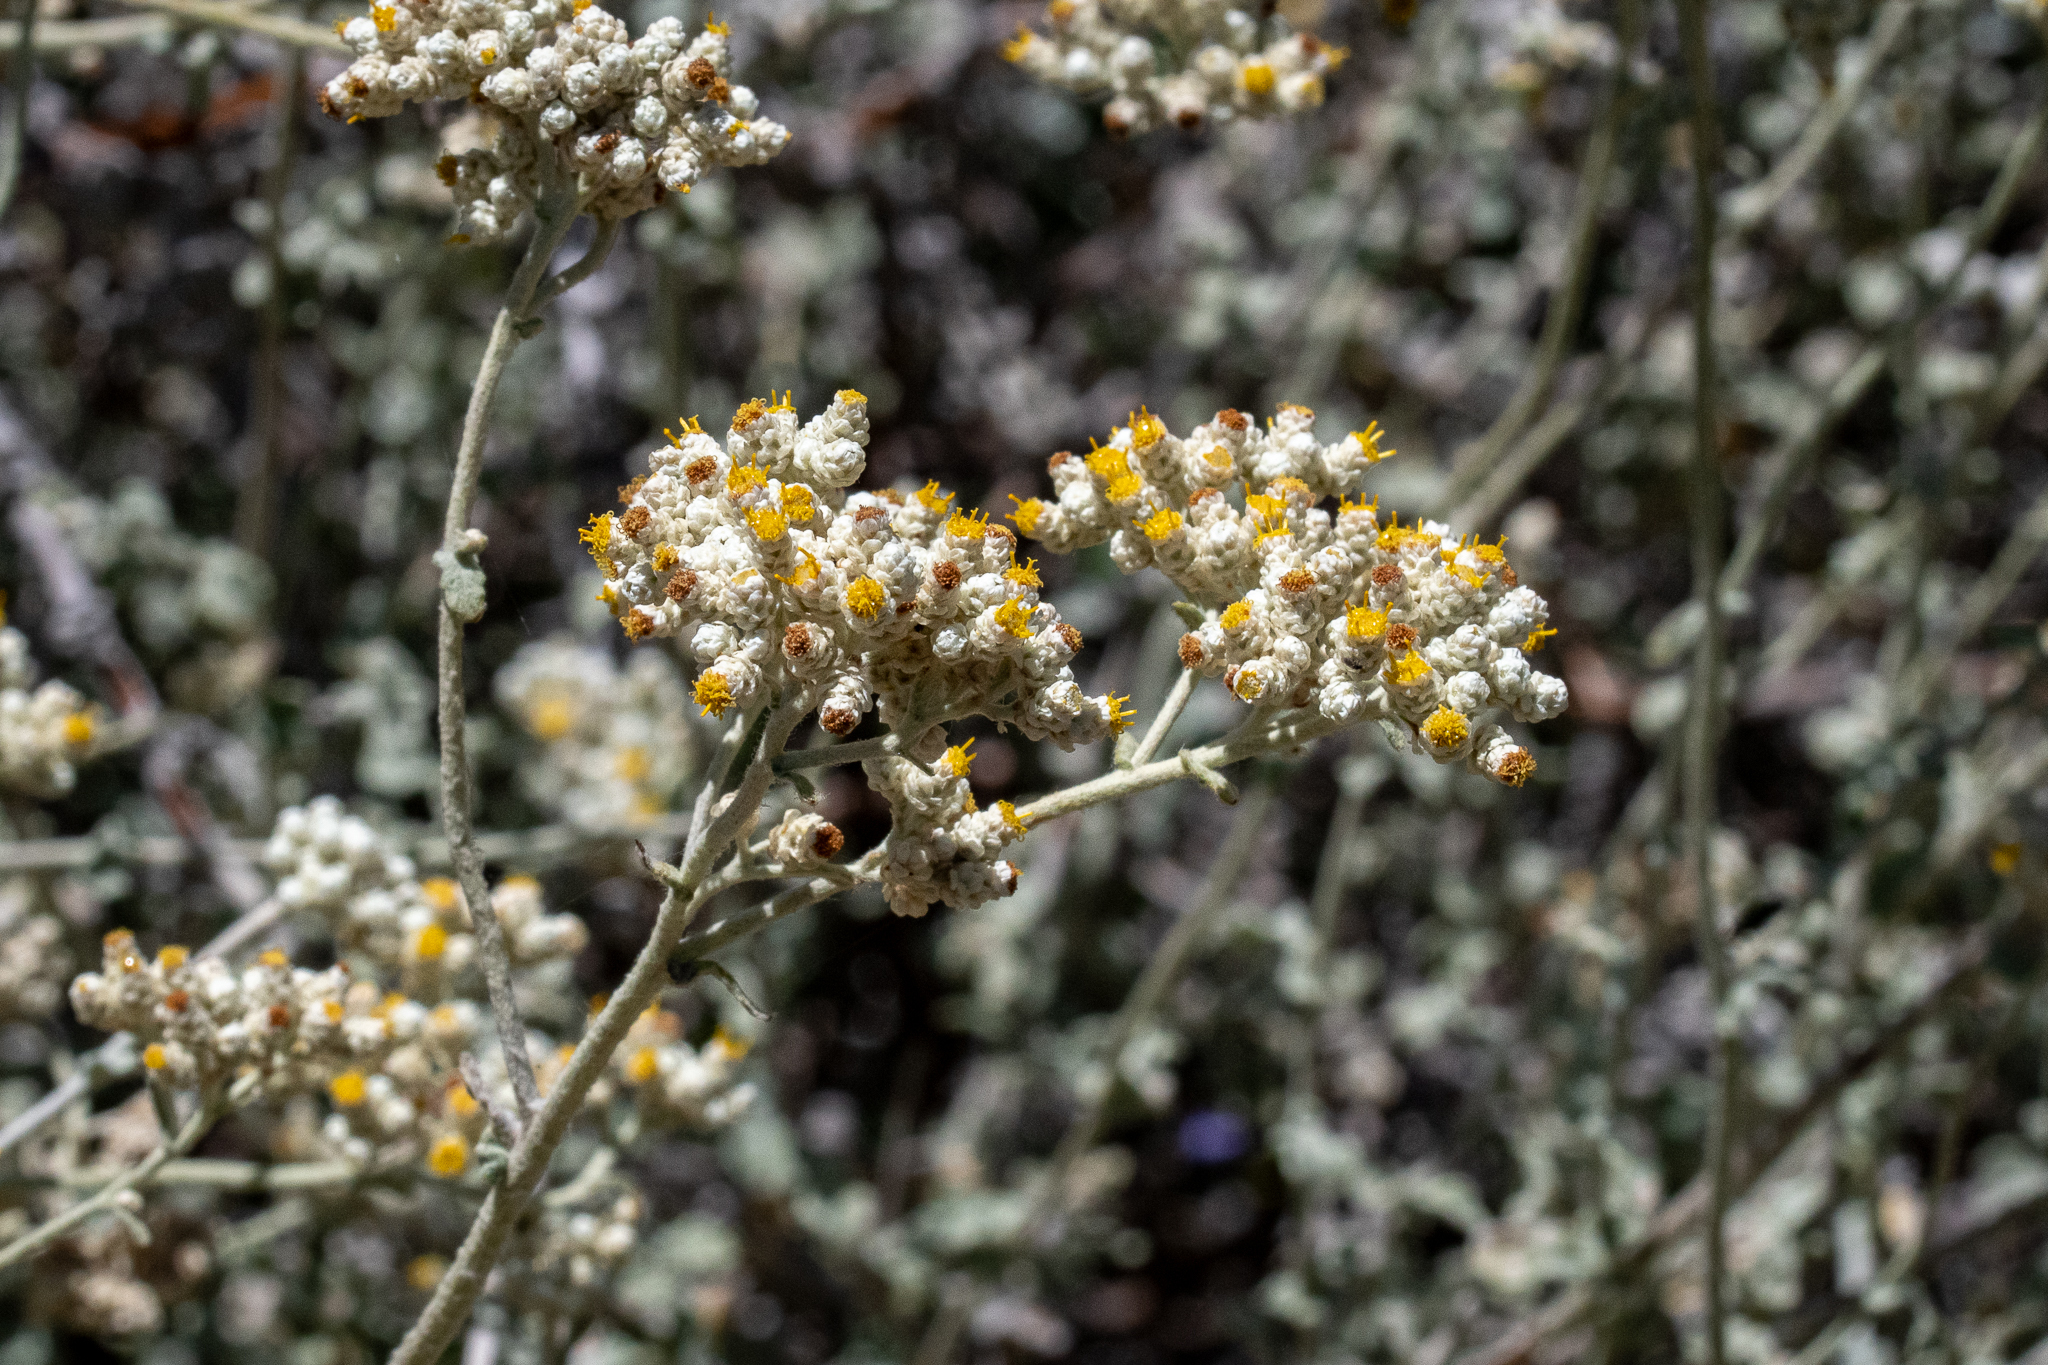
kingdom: Plantae
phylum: Tracheophyta
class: Magnoliopsida
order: Asterales
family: Asteraceae
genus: Helichrysum
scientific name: Helichrysum patulum
